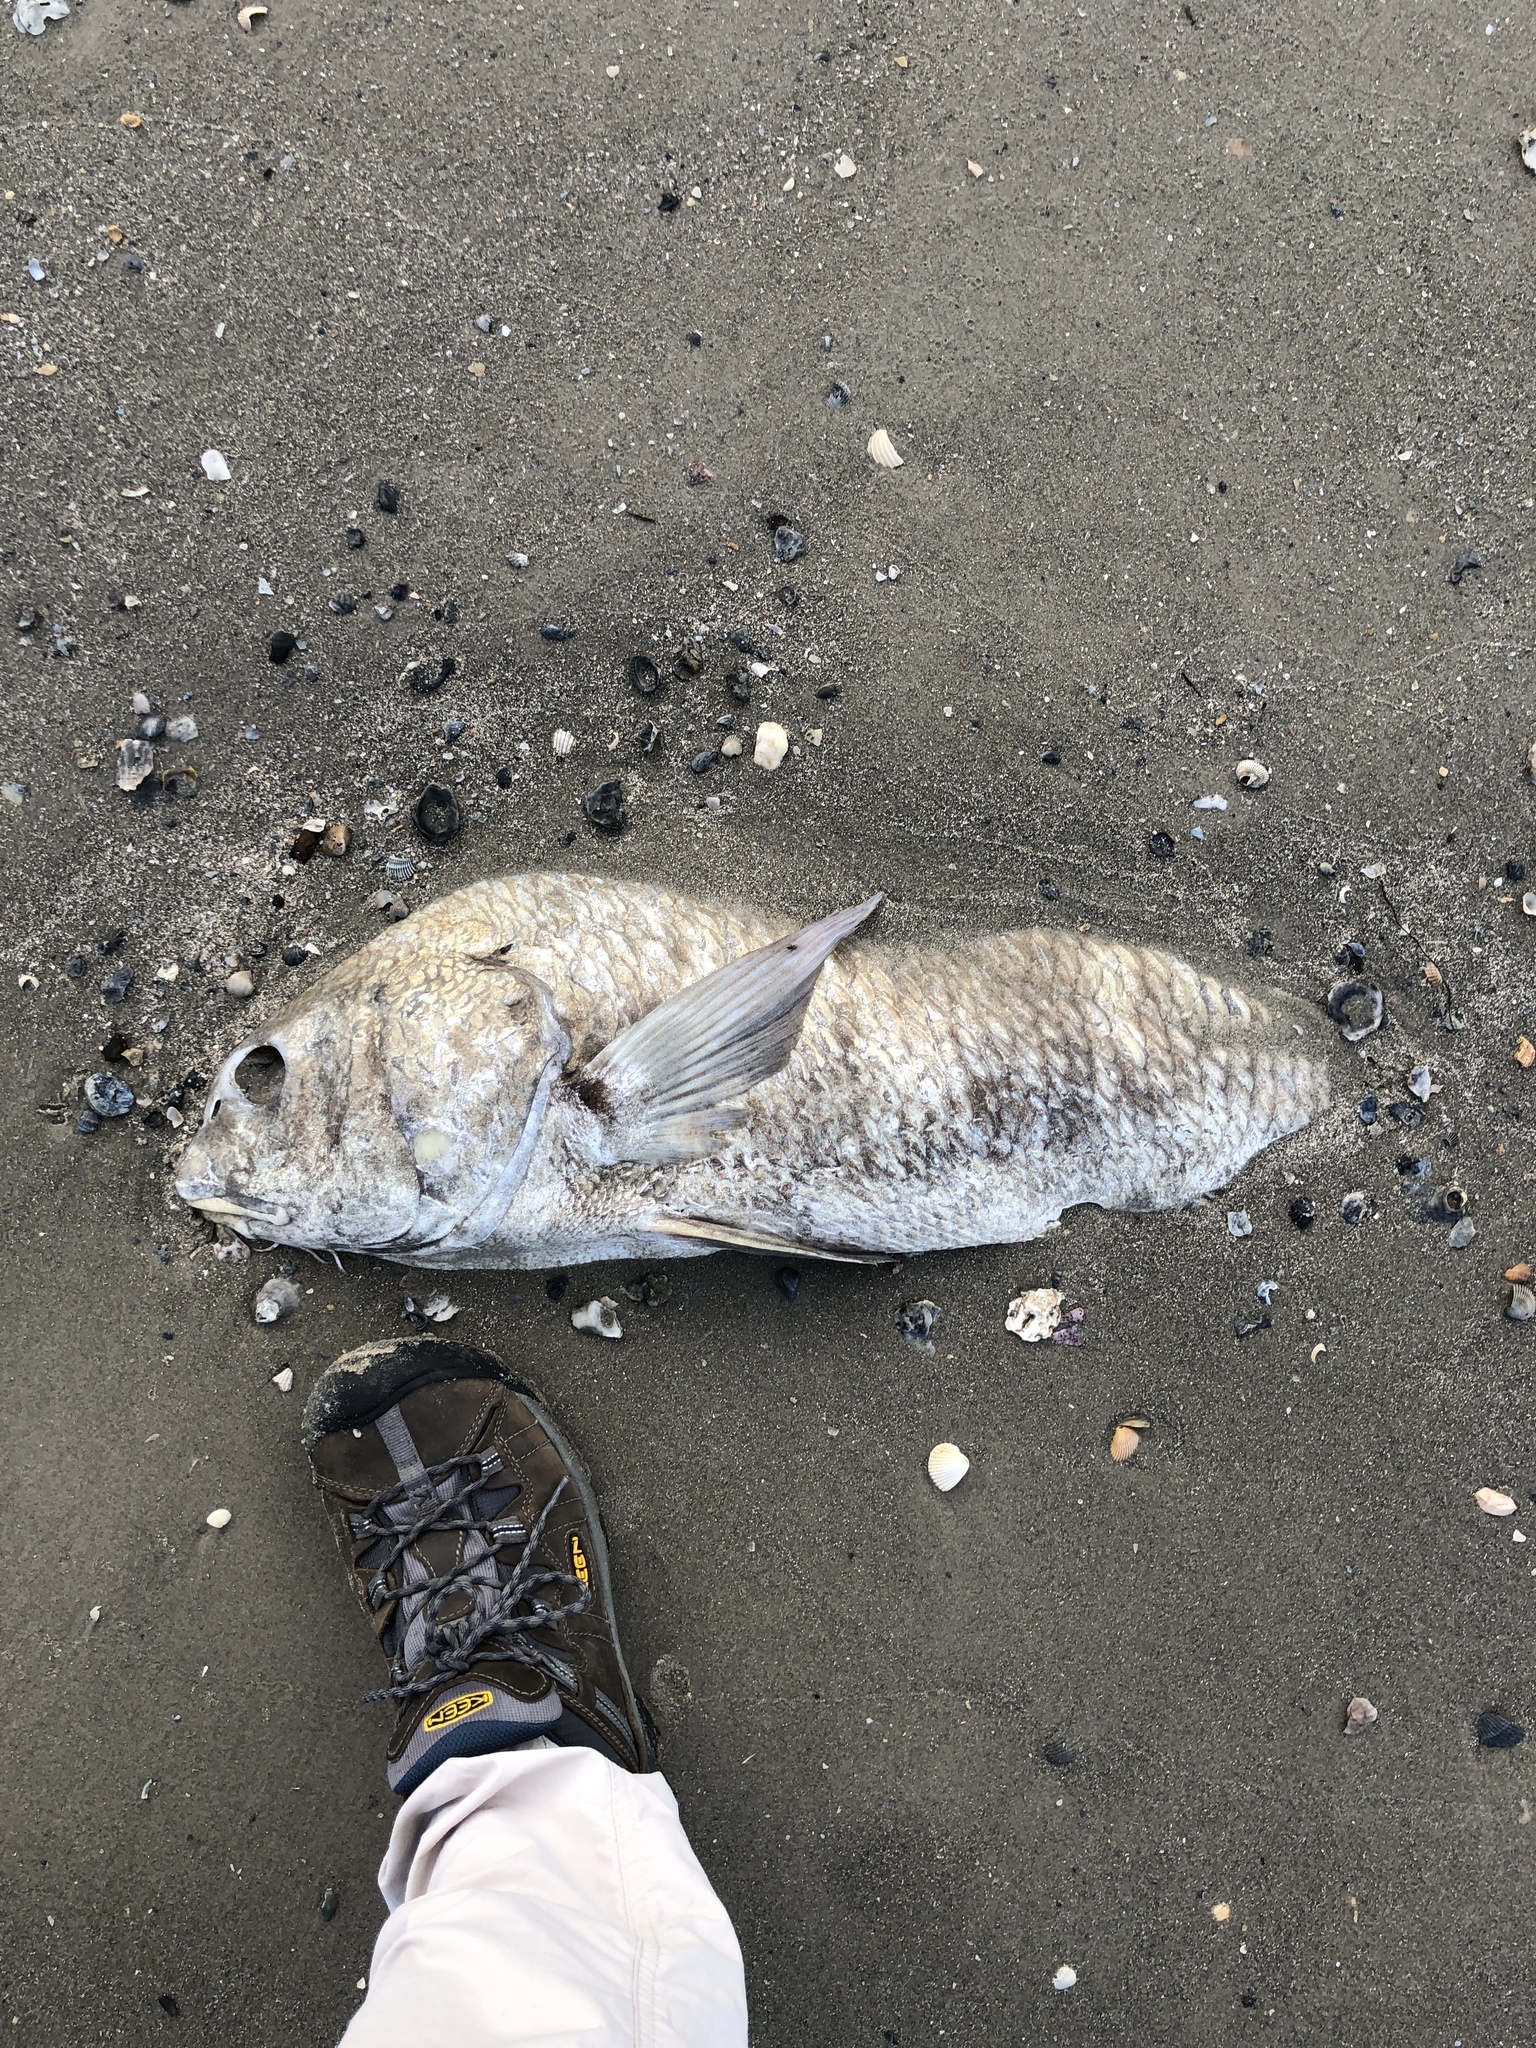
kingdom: Animalia
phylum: Chordata
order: Perciformes
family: Sciaenidae
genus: Pogonias
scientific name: Pogonias cromis
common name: Black drum
